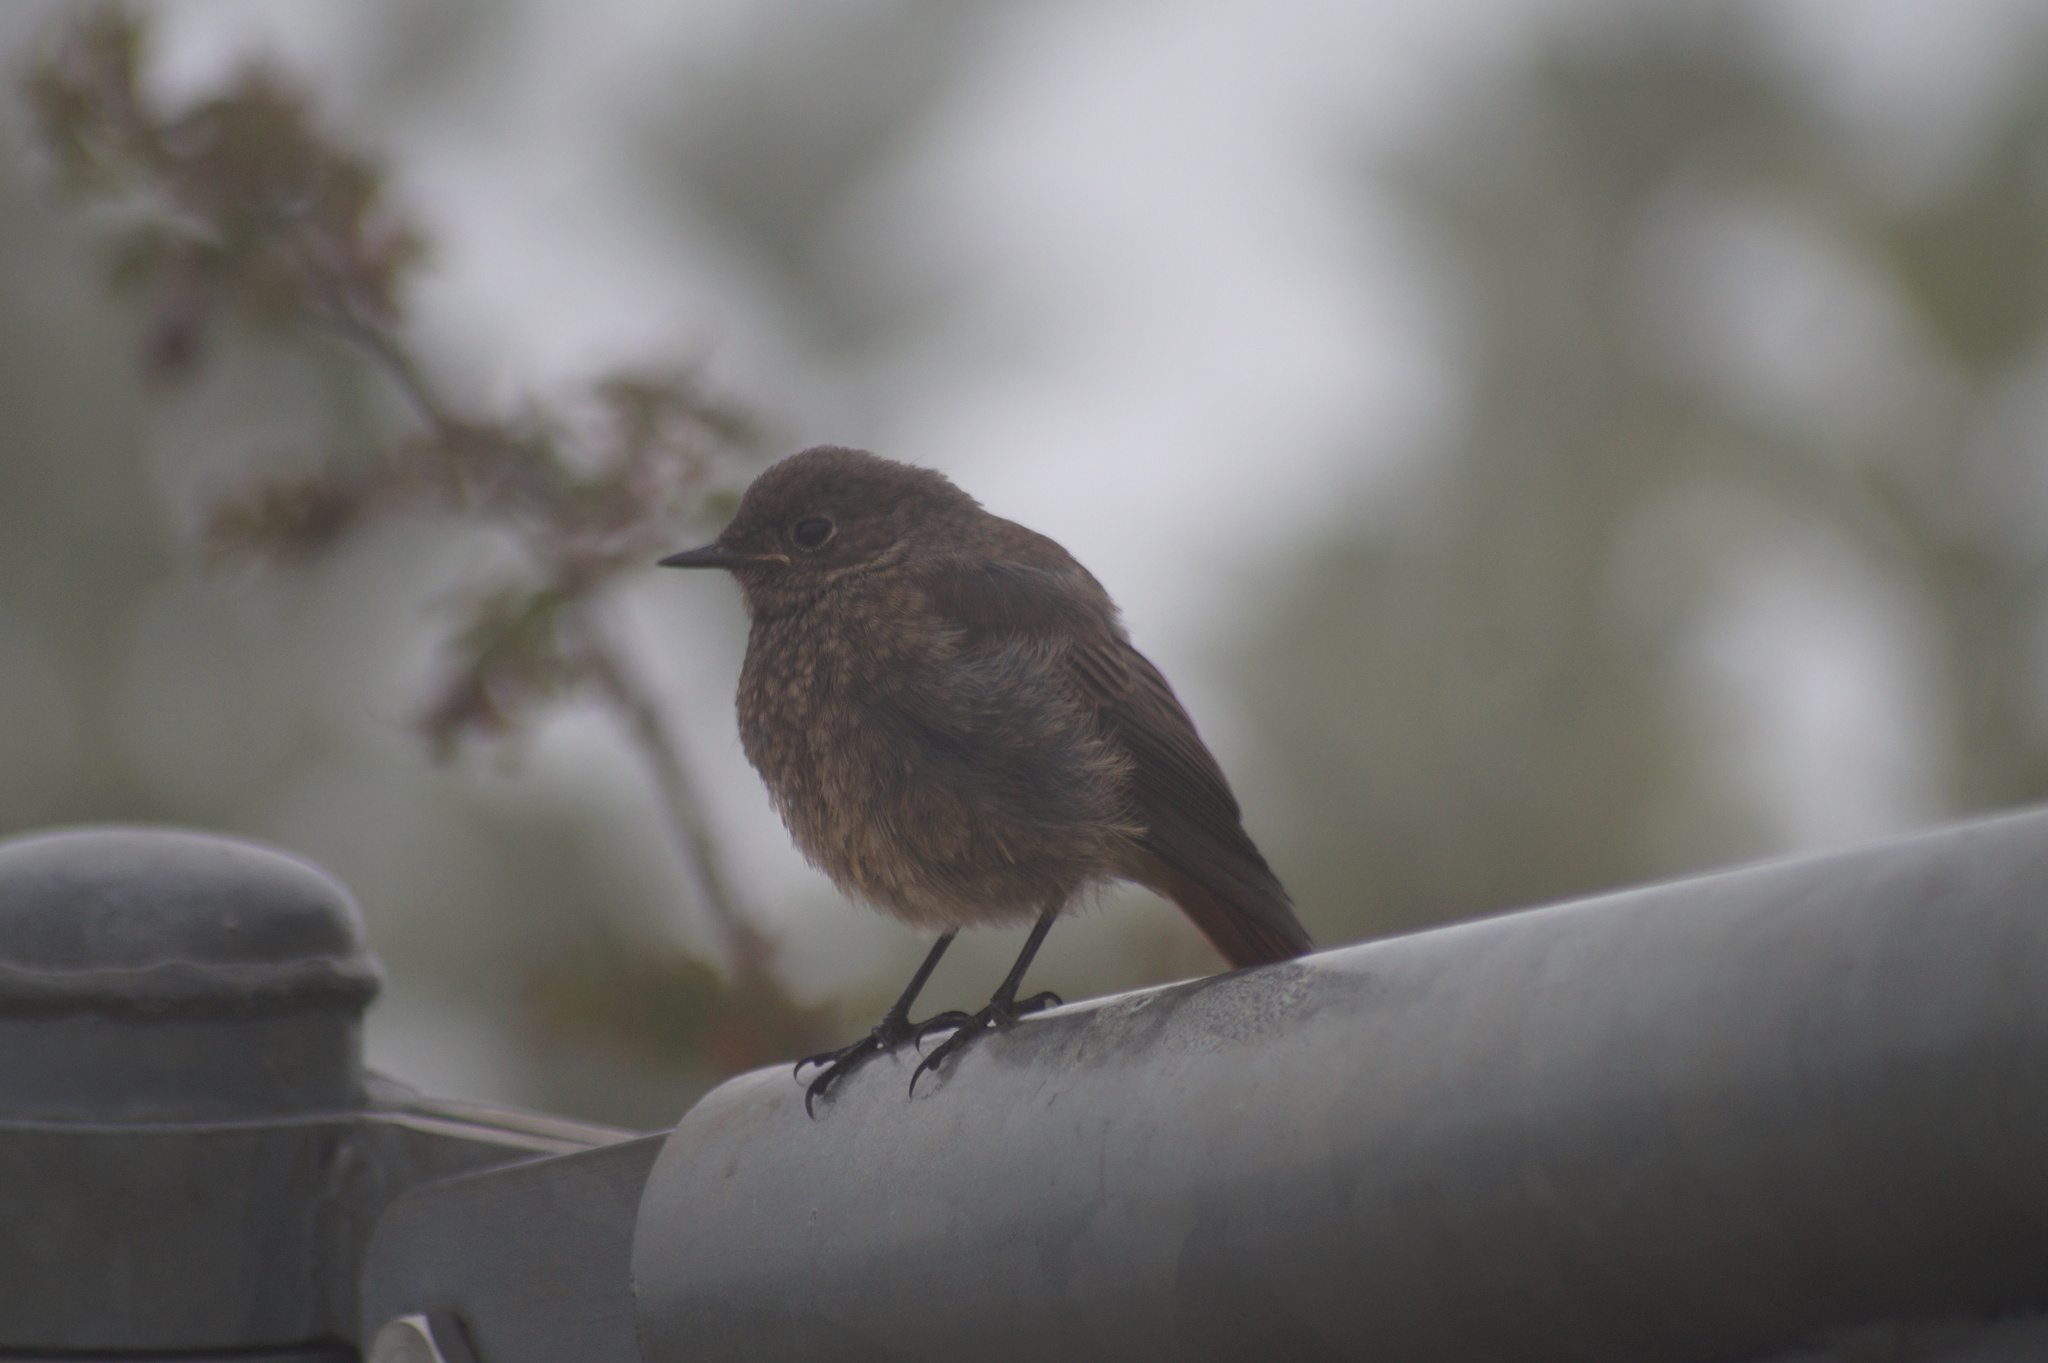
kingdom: Animalia
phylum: Chordata
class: Aves
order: Passeriformes
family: Muscicapidae
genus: Phoenicurus
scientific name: Phoenicurus ochruros
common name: Black redstart
